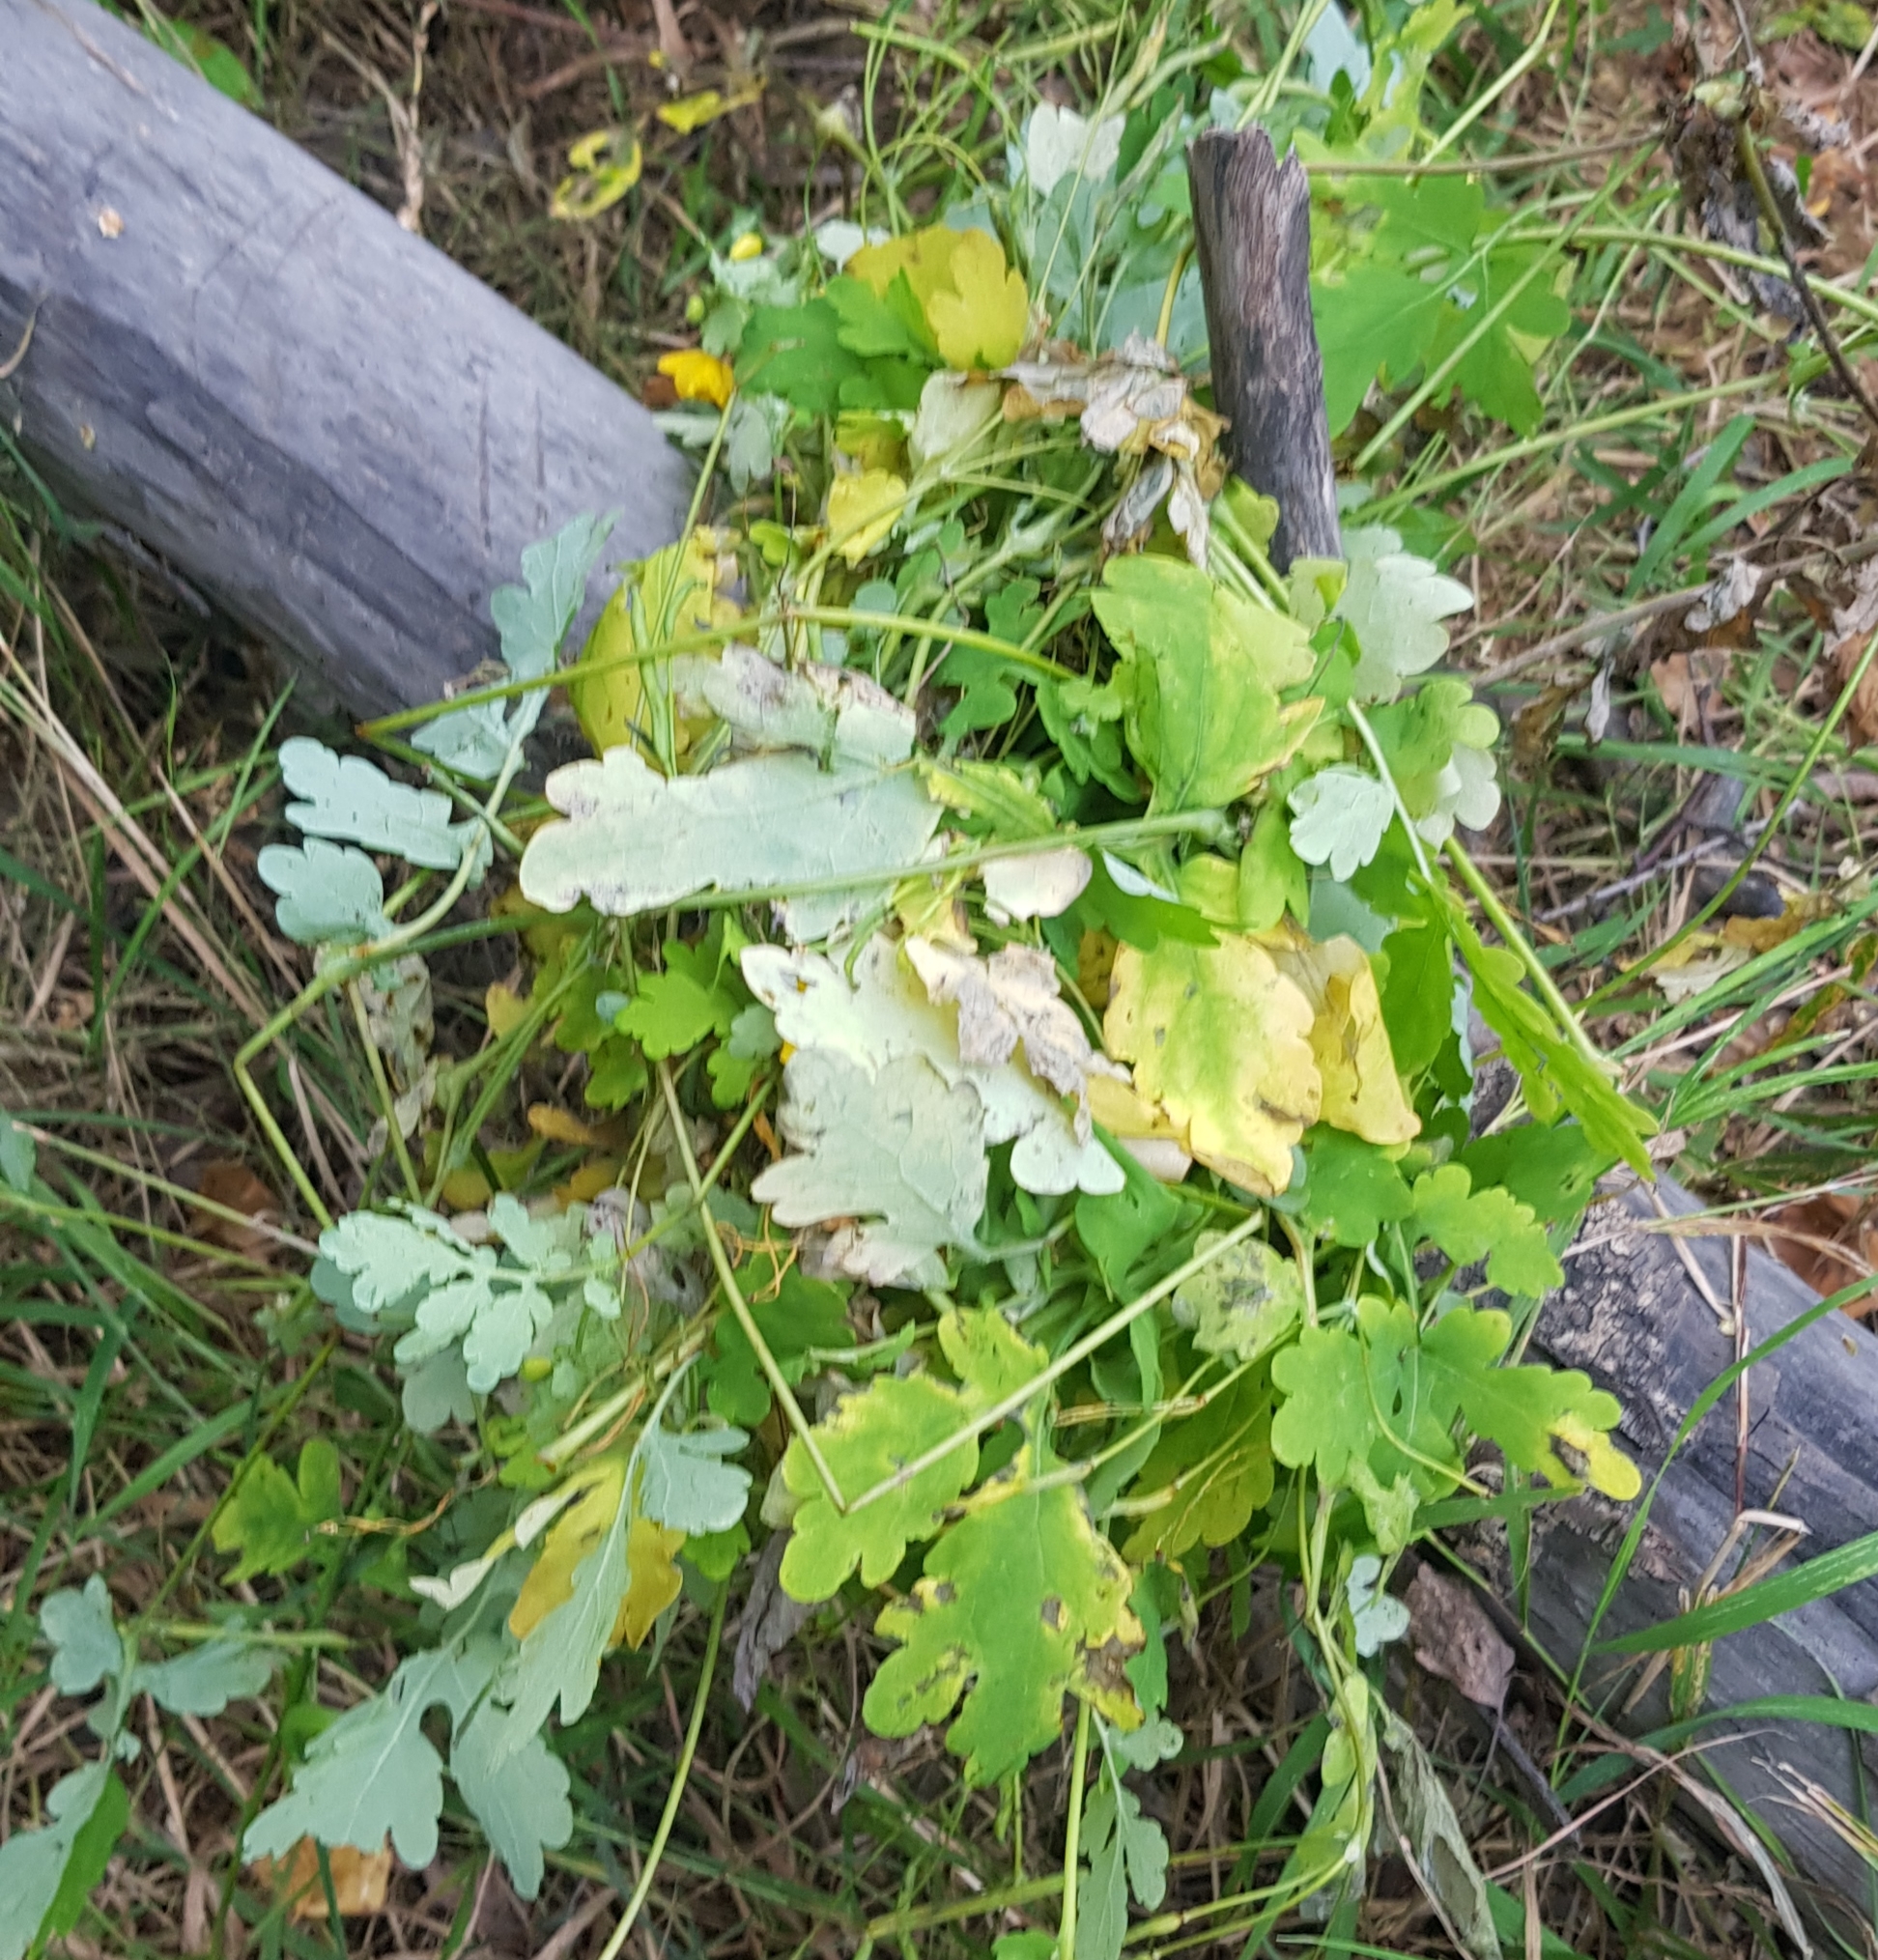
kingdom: Plantae
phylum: Tracheophyta
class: Magnoliopsida
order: Ranunculales
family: Papaveraceae
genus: Chelidonium
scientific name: Chelidonium majus
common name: Greater celandine
